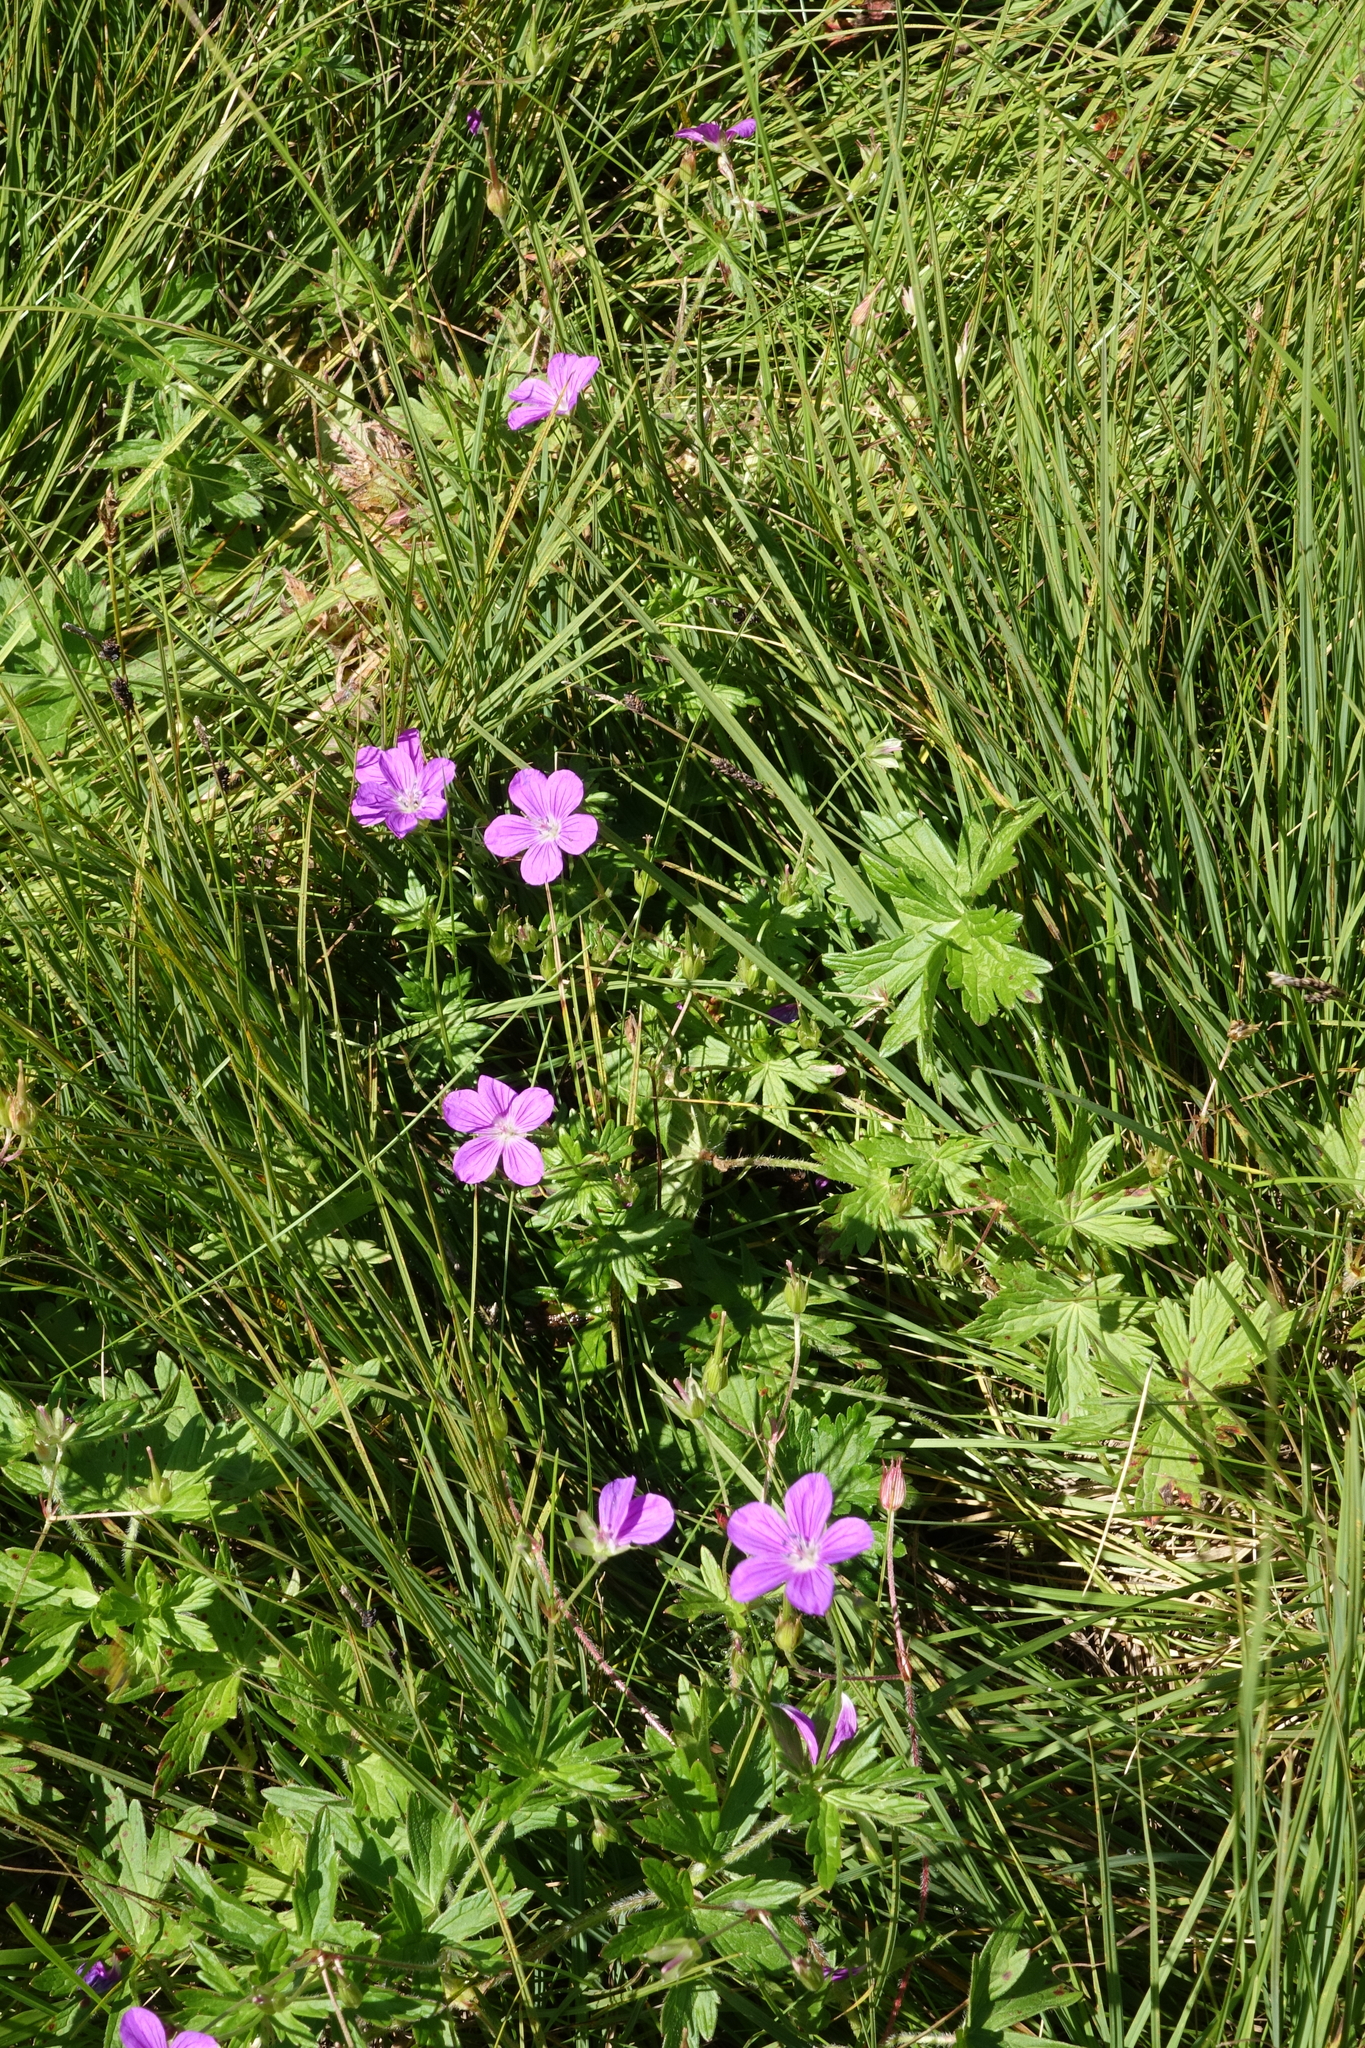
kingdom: Plantae
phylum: Tracheophyta
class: Magnoliopsida
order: Geraniales
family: Geraniaceae
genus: Geranium
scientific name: Geranium palustre
